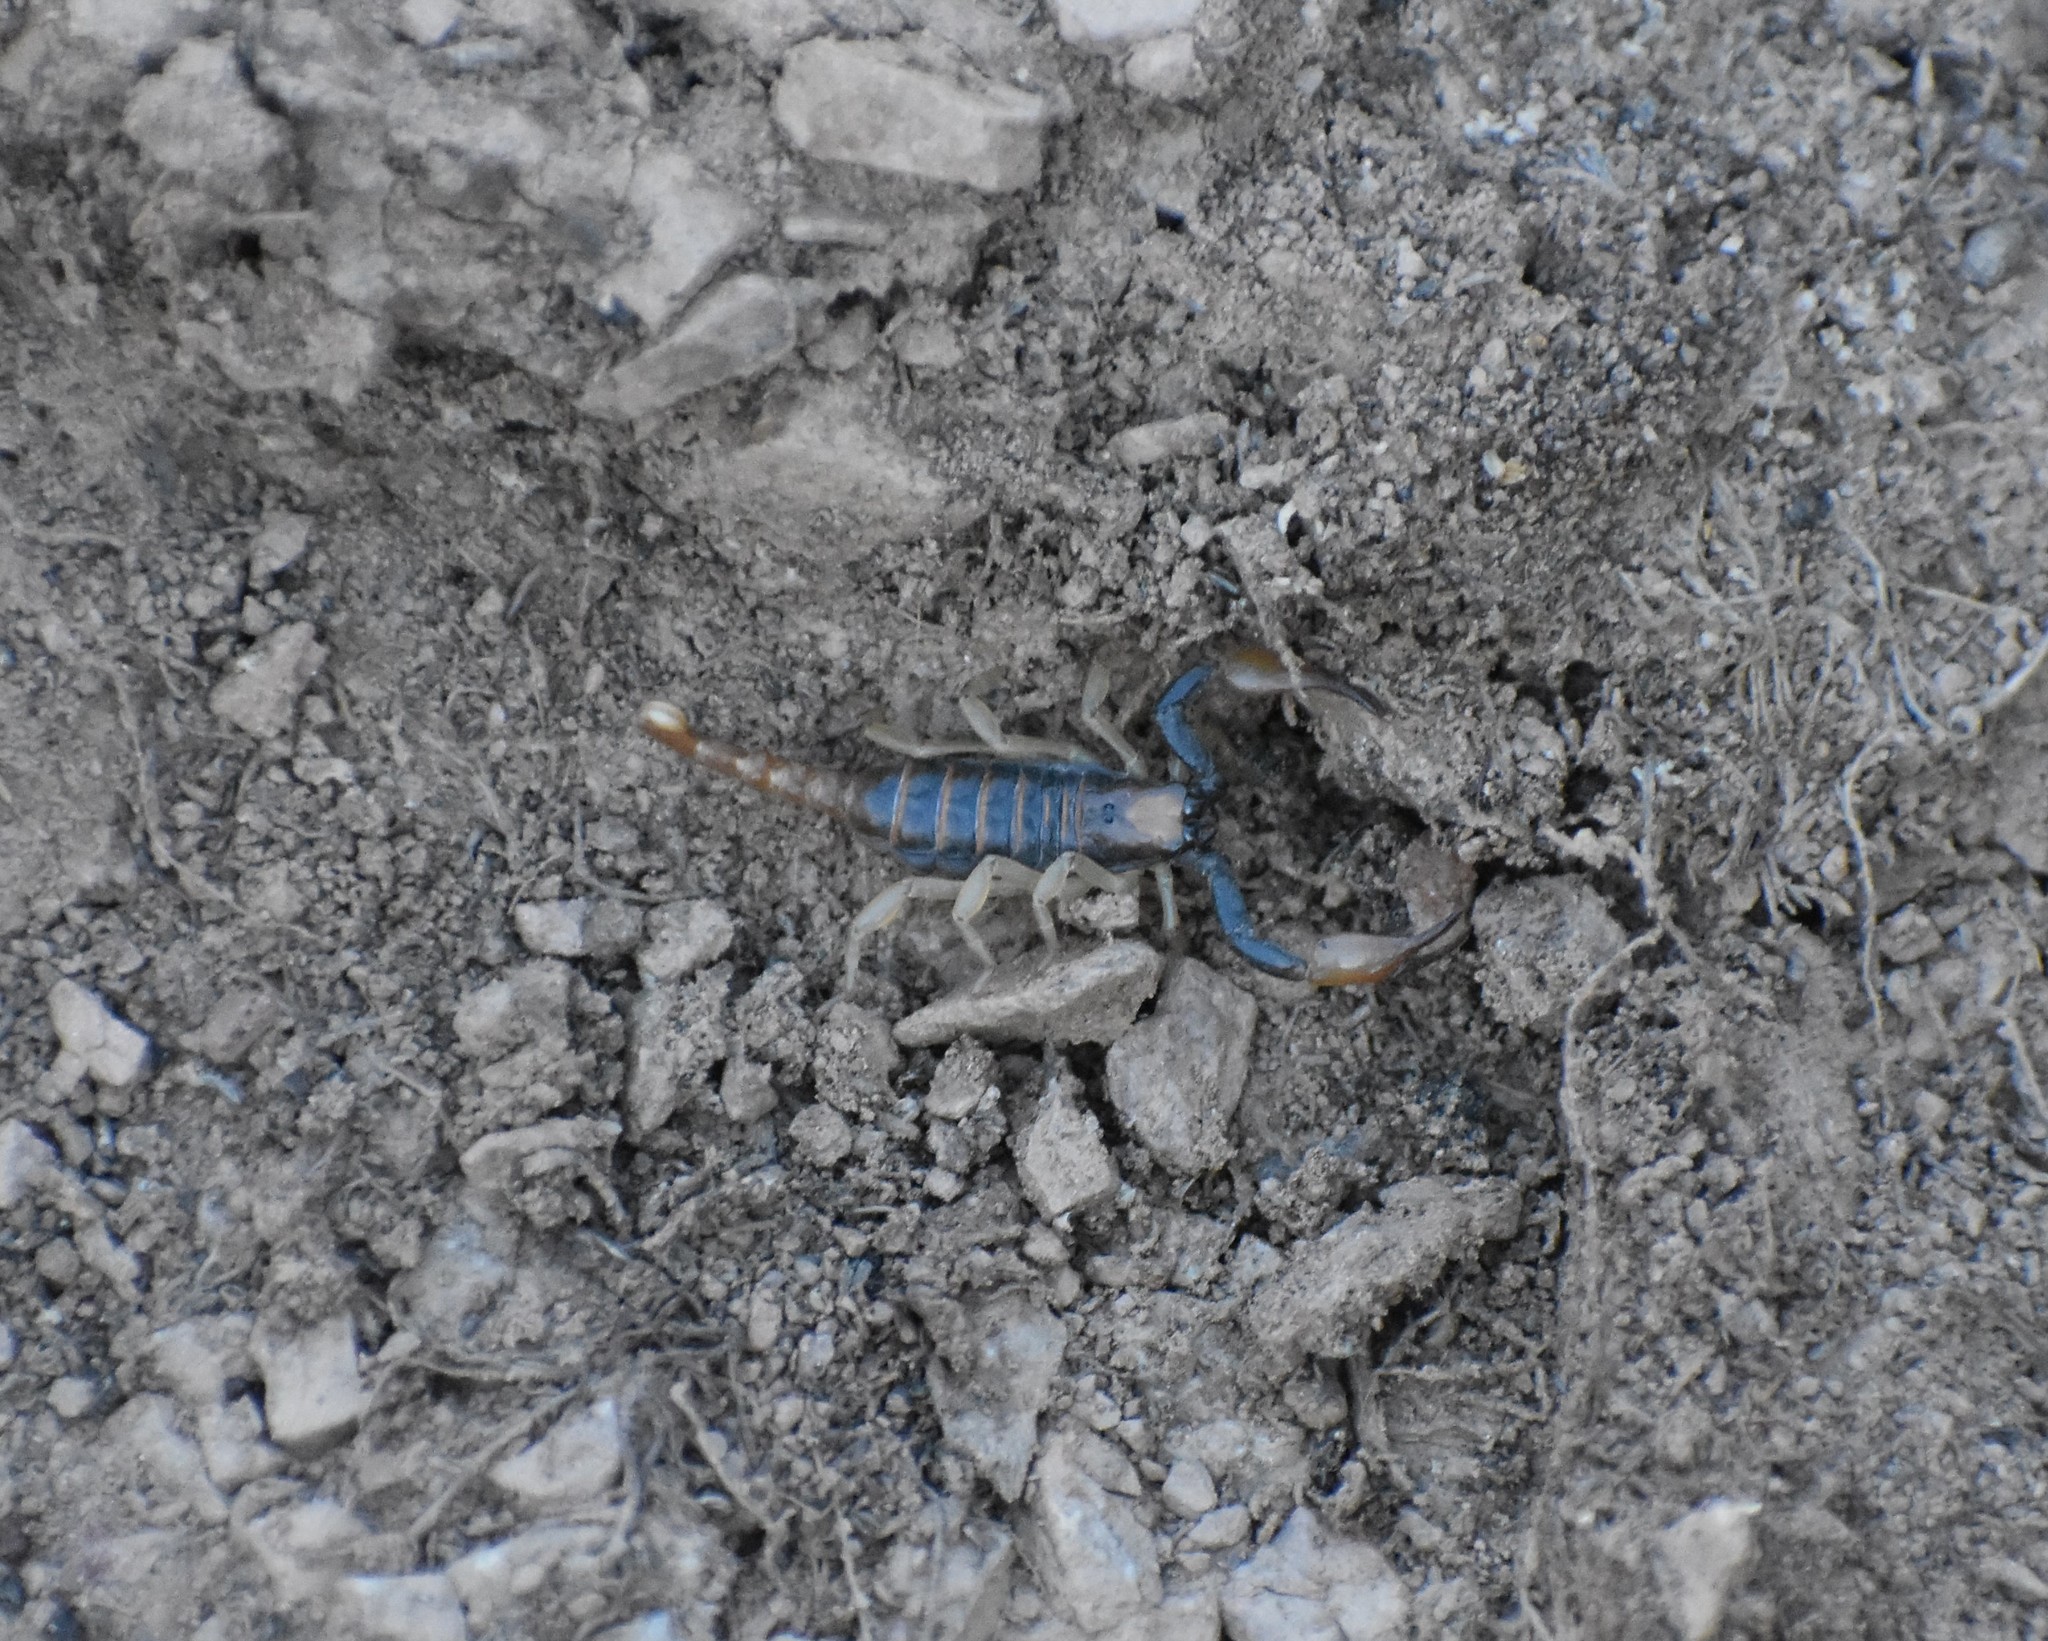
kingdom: Animalia
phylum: Arthropoda
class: Arachnida
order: Scorpiones
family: Scorpionidae
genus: Opistophthalmus
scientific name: Opistophthalmus karrooensis
